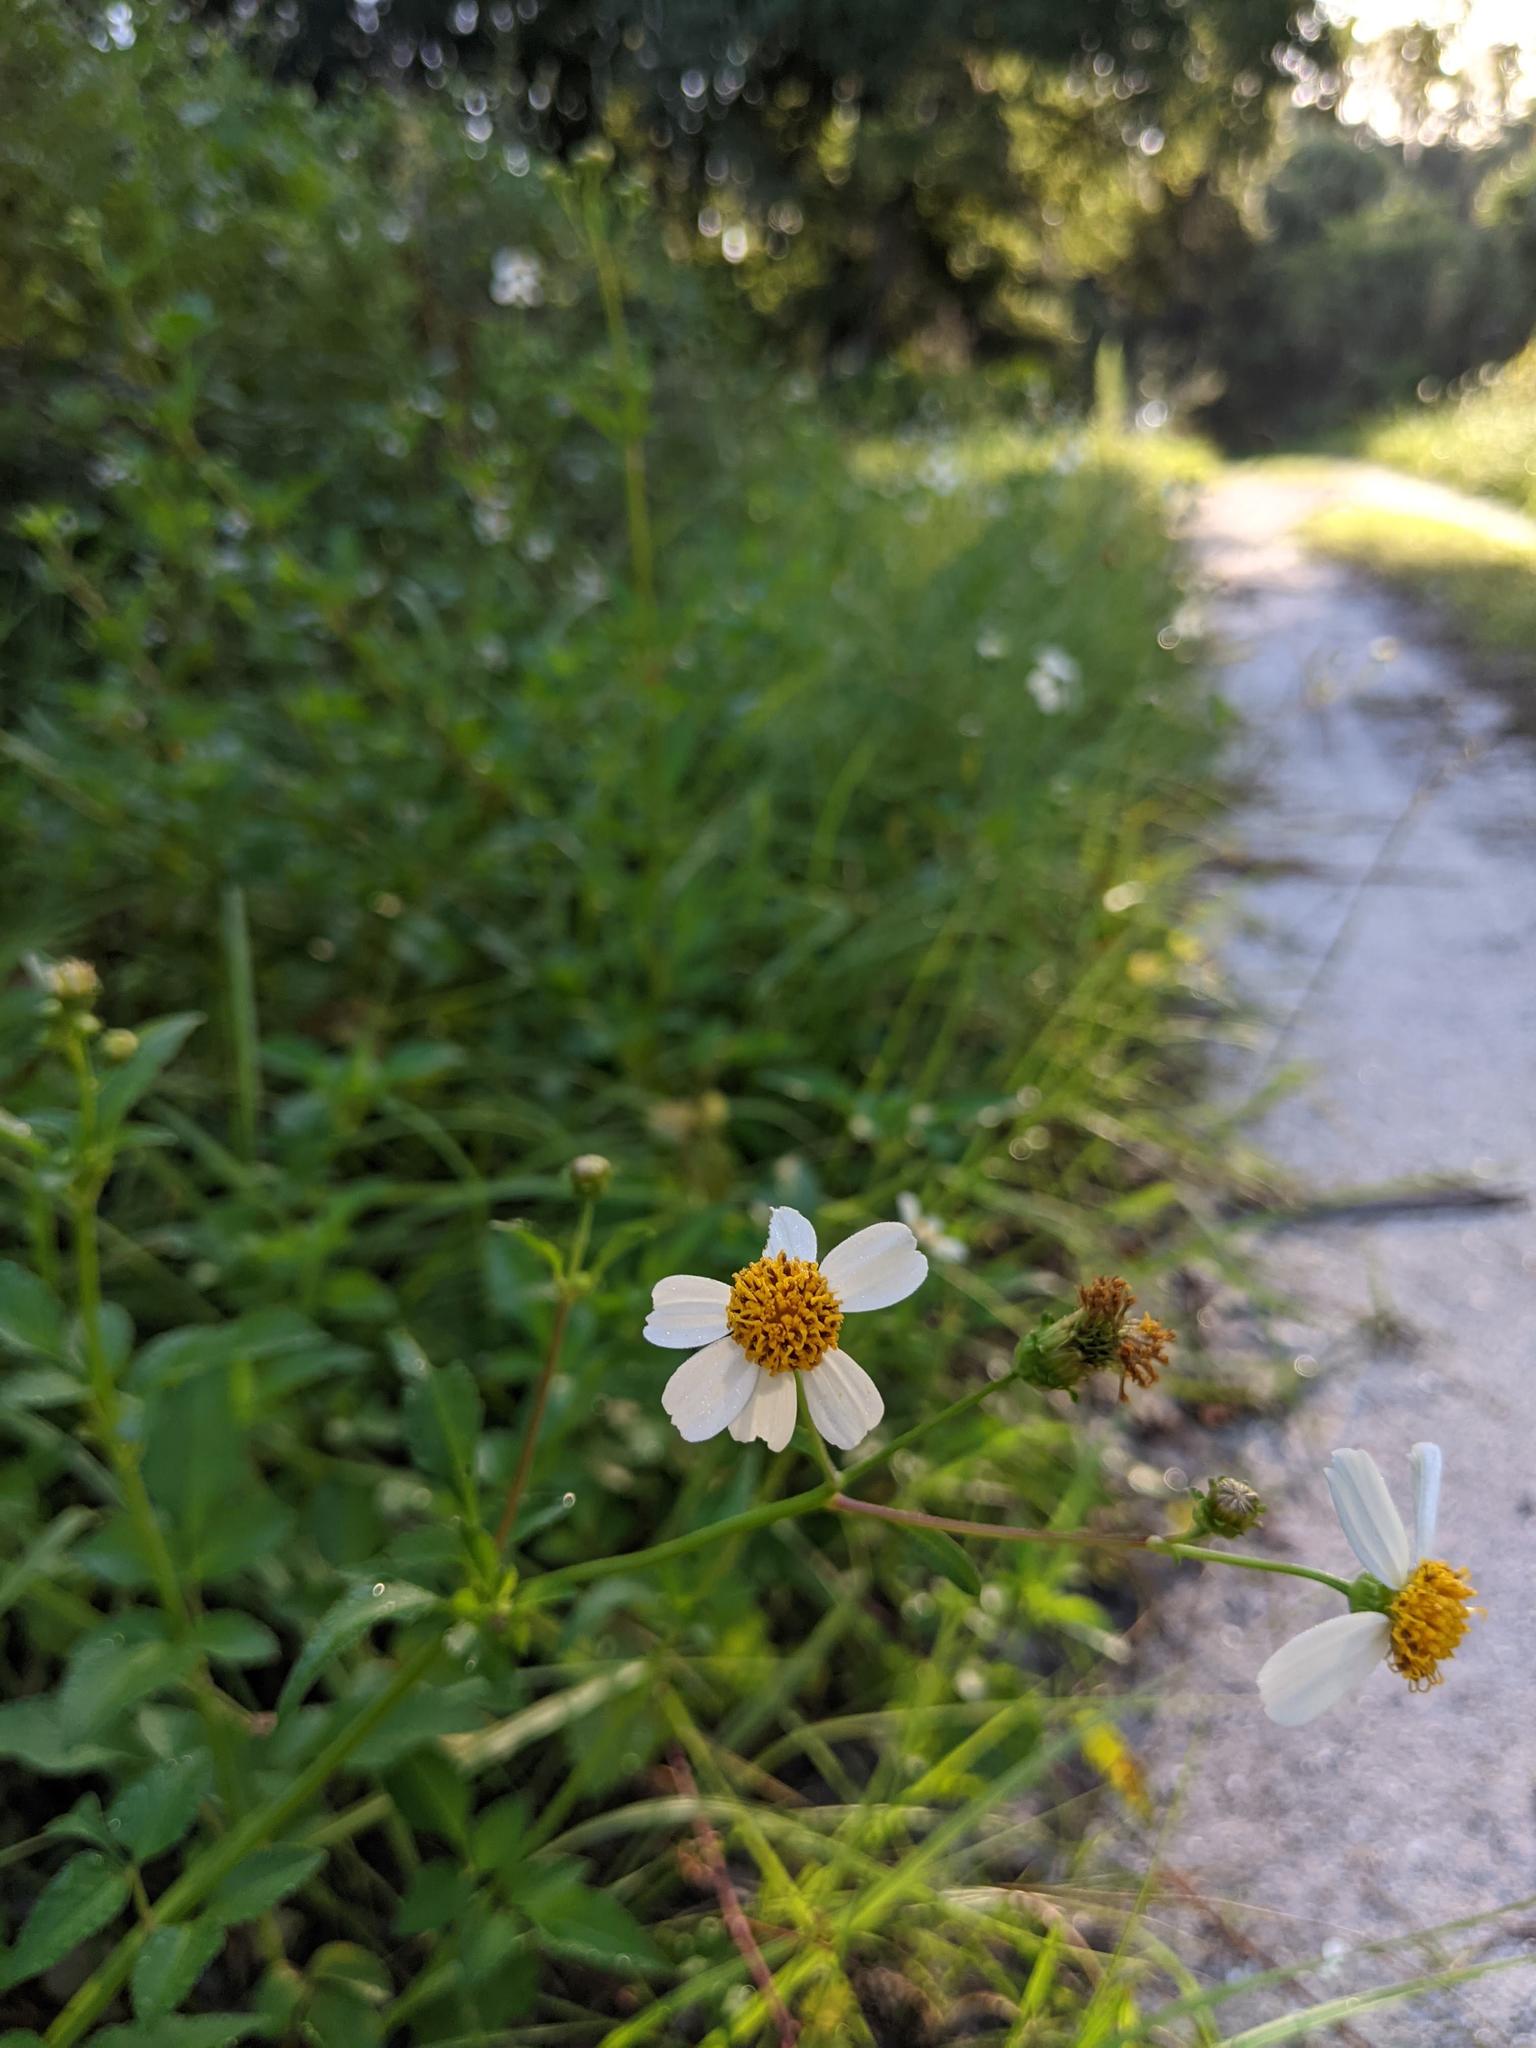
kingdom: Plantae
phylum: Tracheophyta
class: Magnoliopsida
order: Asterales
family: Asteraceae
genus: Bidens
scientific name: Bidens alba
